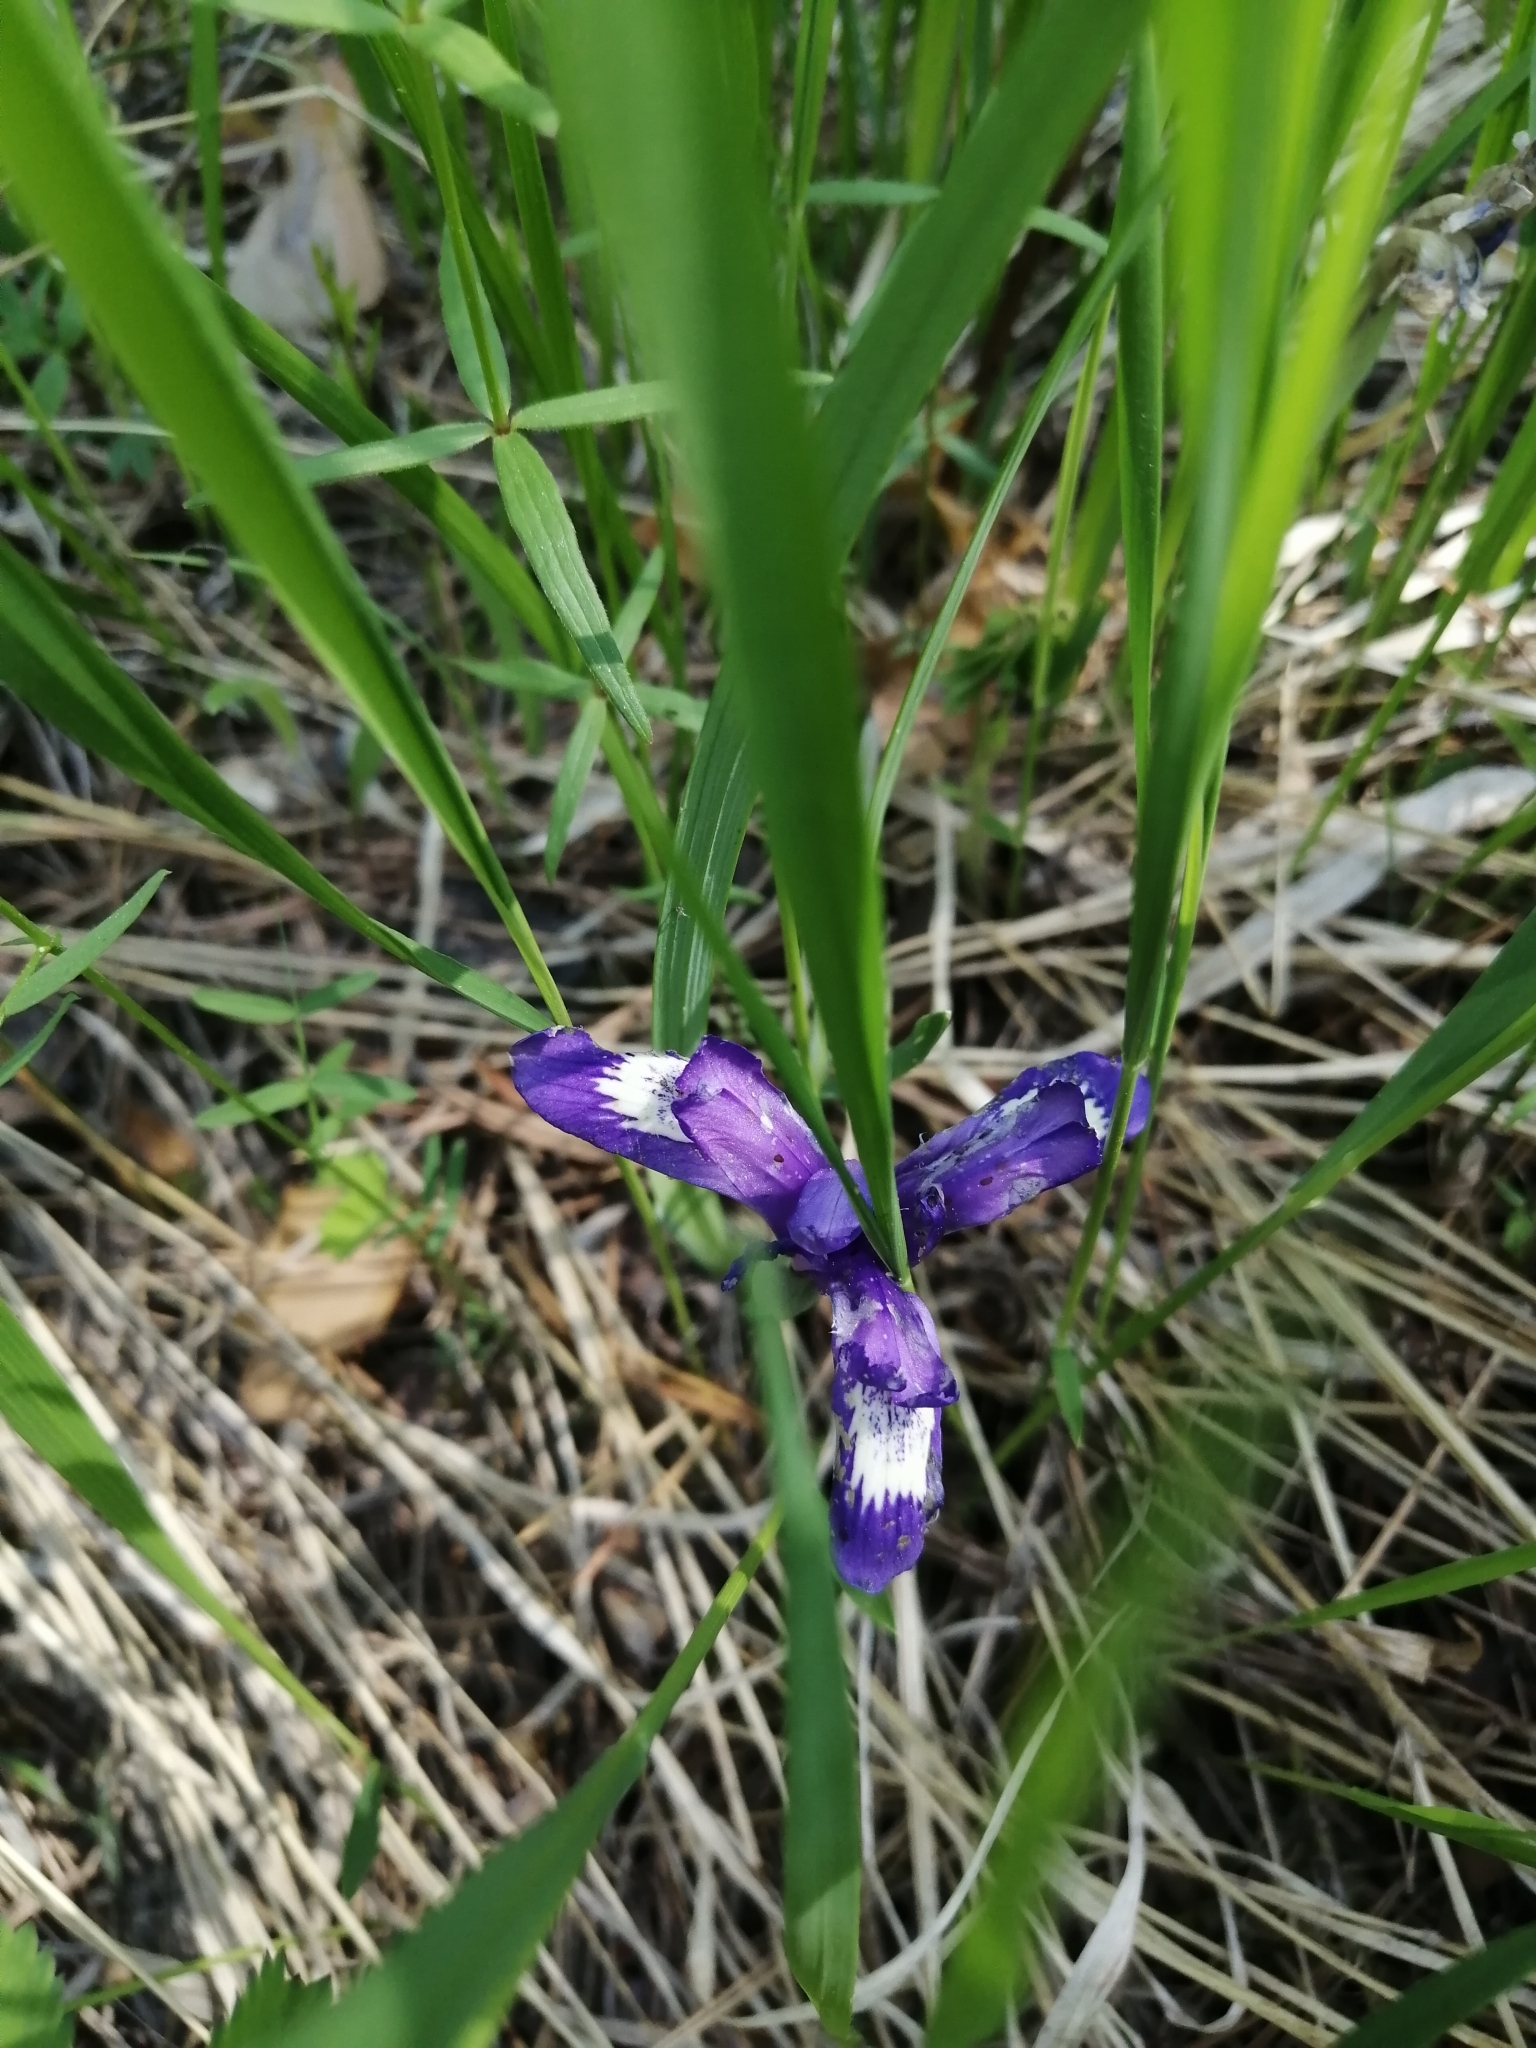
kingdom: Plantae
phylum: Tracheophyta
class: Liliopsida
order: Asparagales
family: Iridaceae
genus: Iris
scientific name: Iris ruthenica
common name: Purple-bract iris
